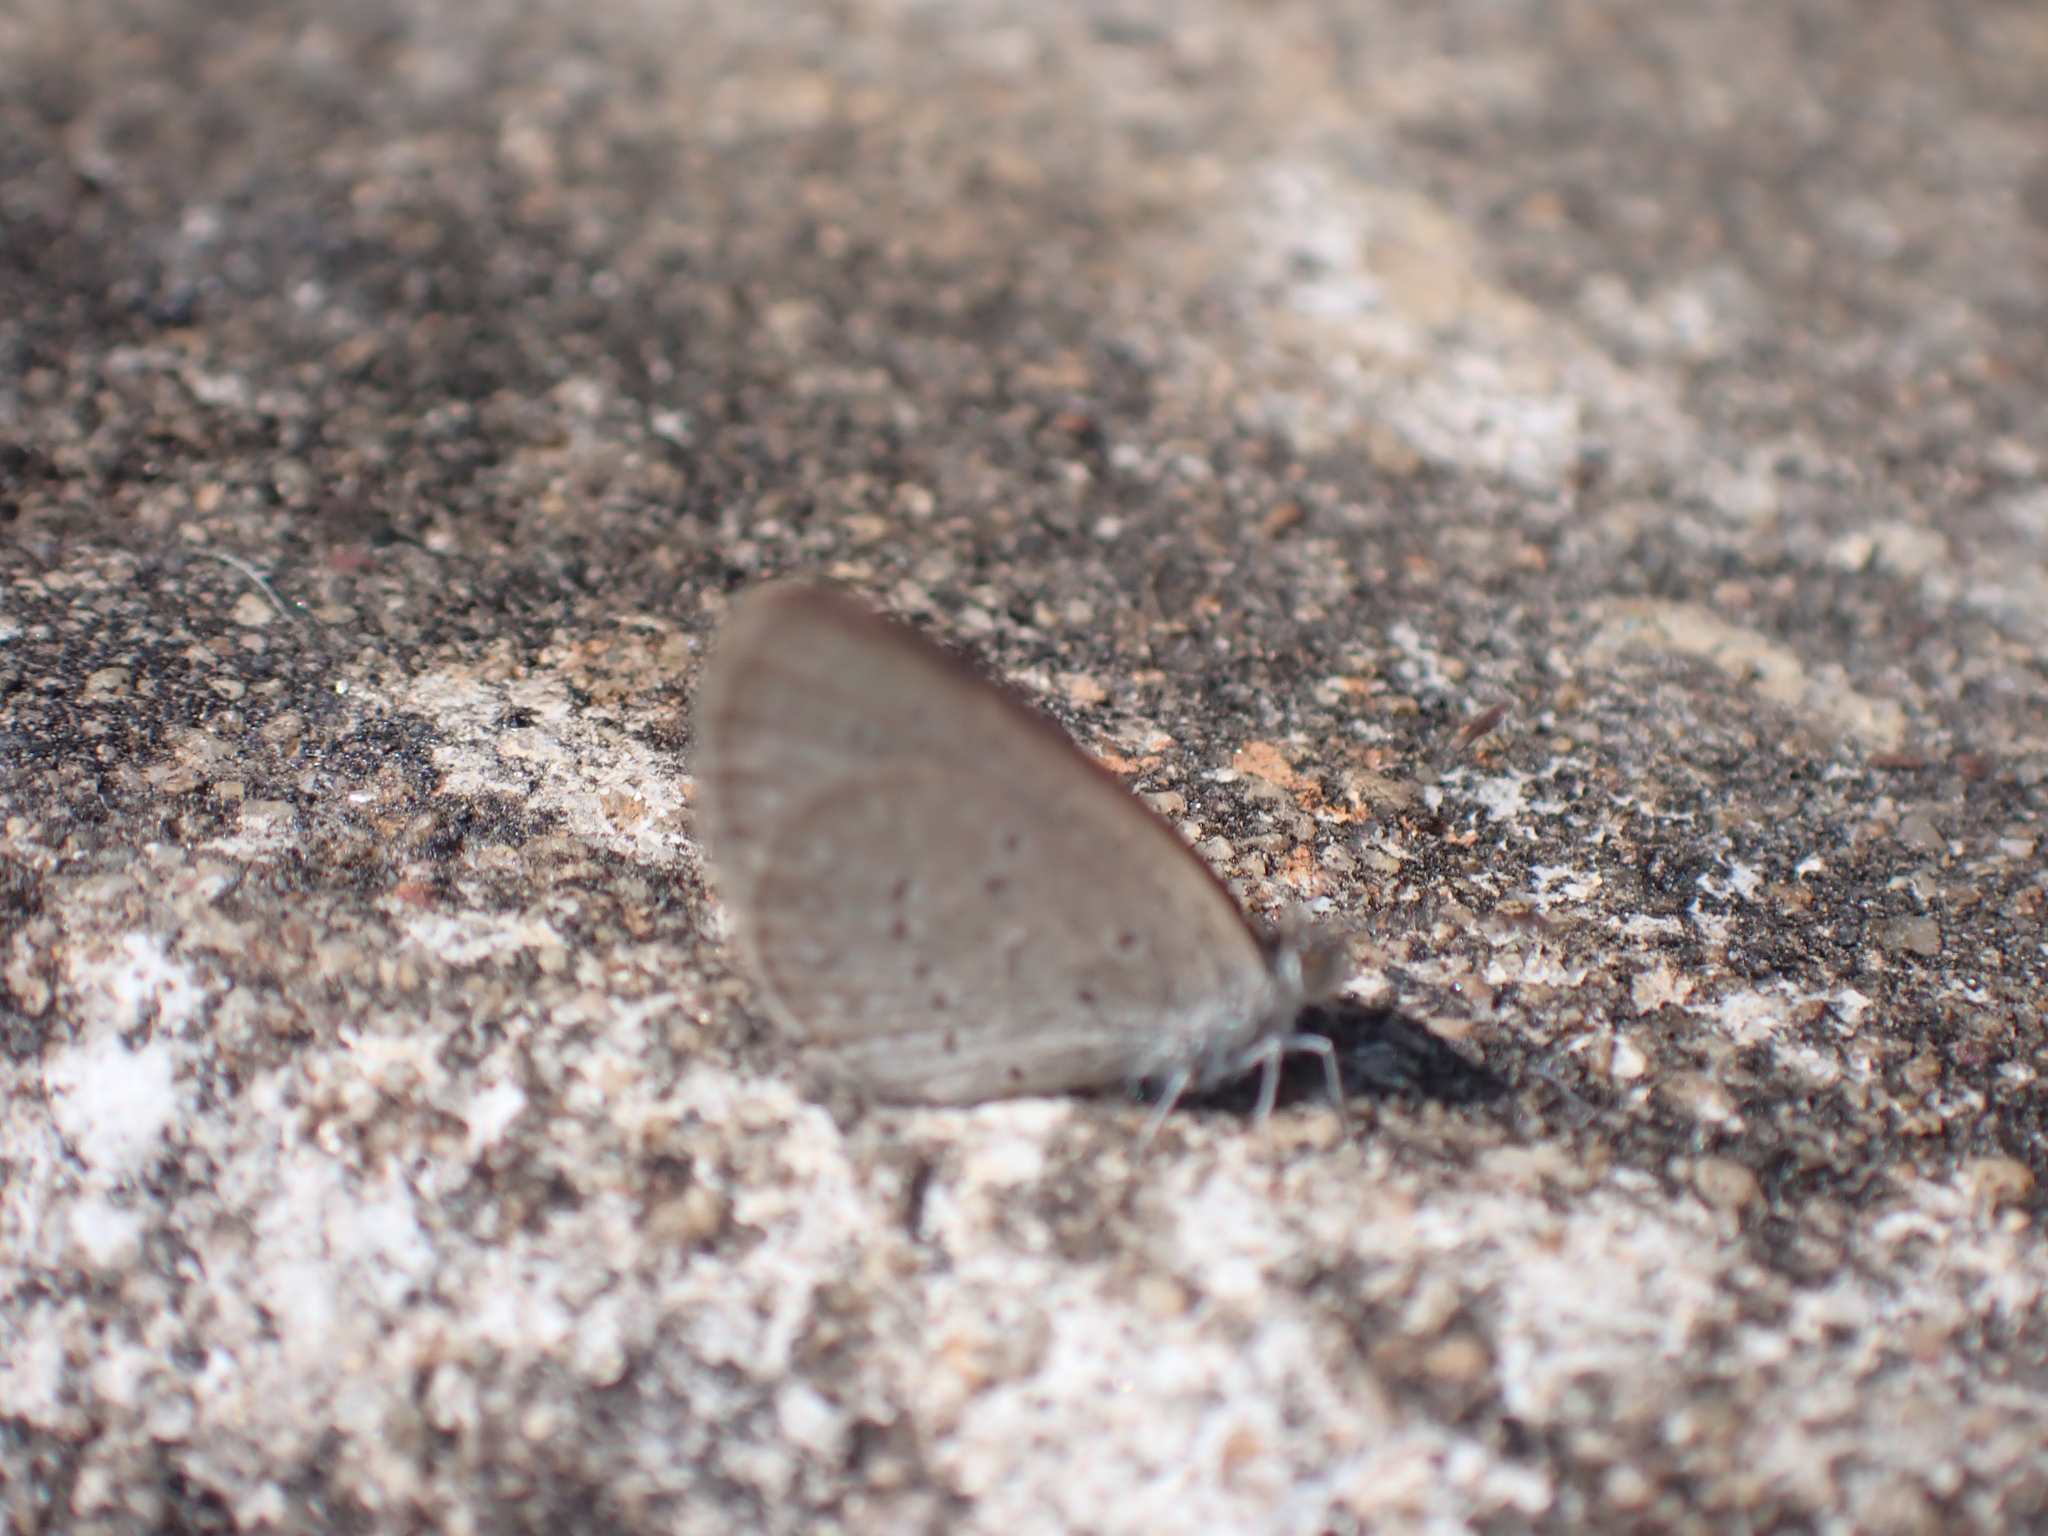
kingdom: Animalia
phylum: Arthropoda
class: Insecta
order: Lepidoptera
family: Lycaenidae
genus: Zizina
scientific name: Zizina otis
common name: Lesser grass blue
